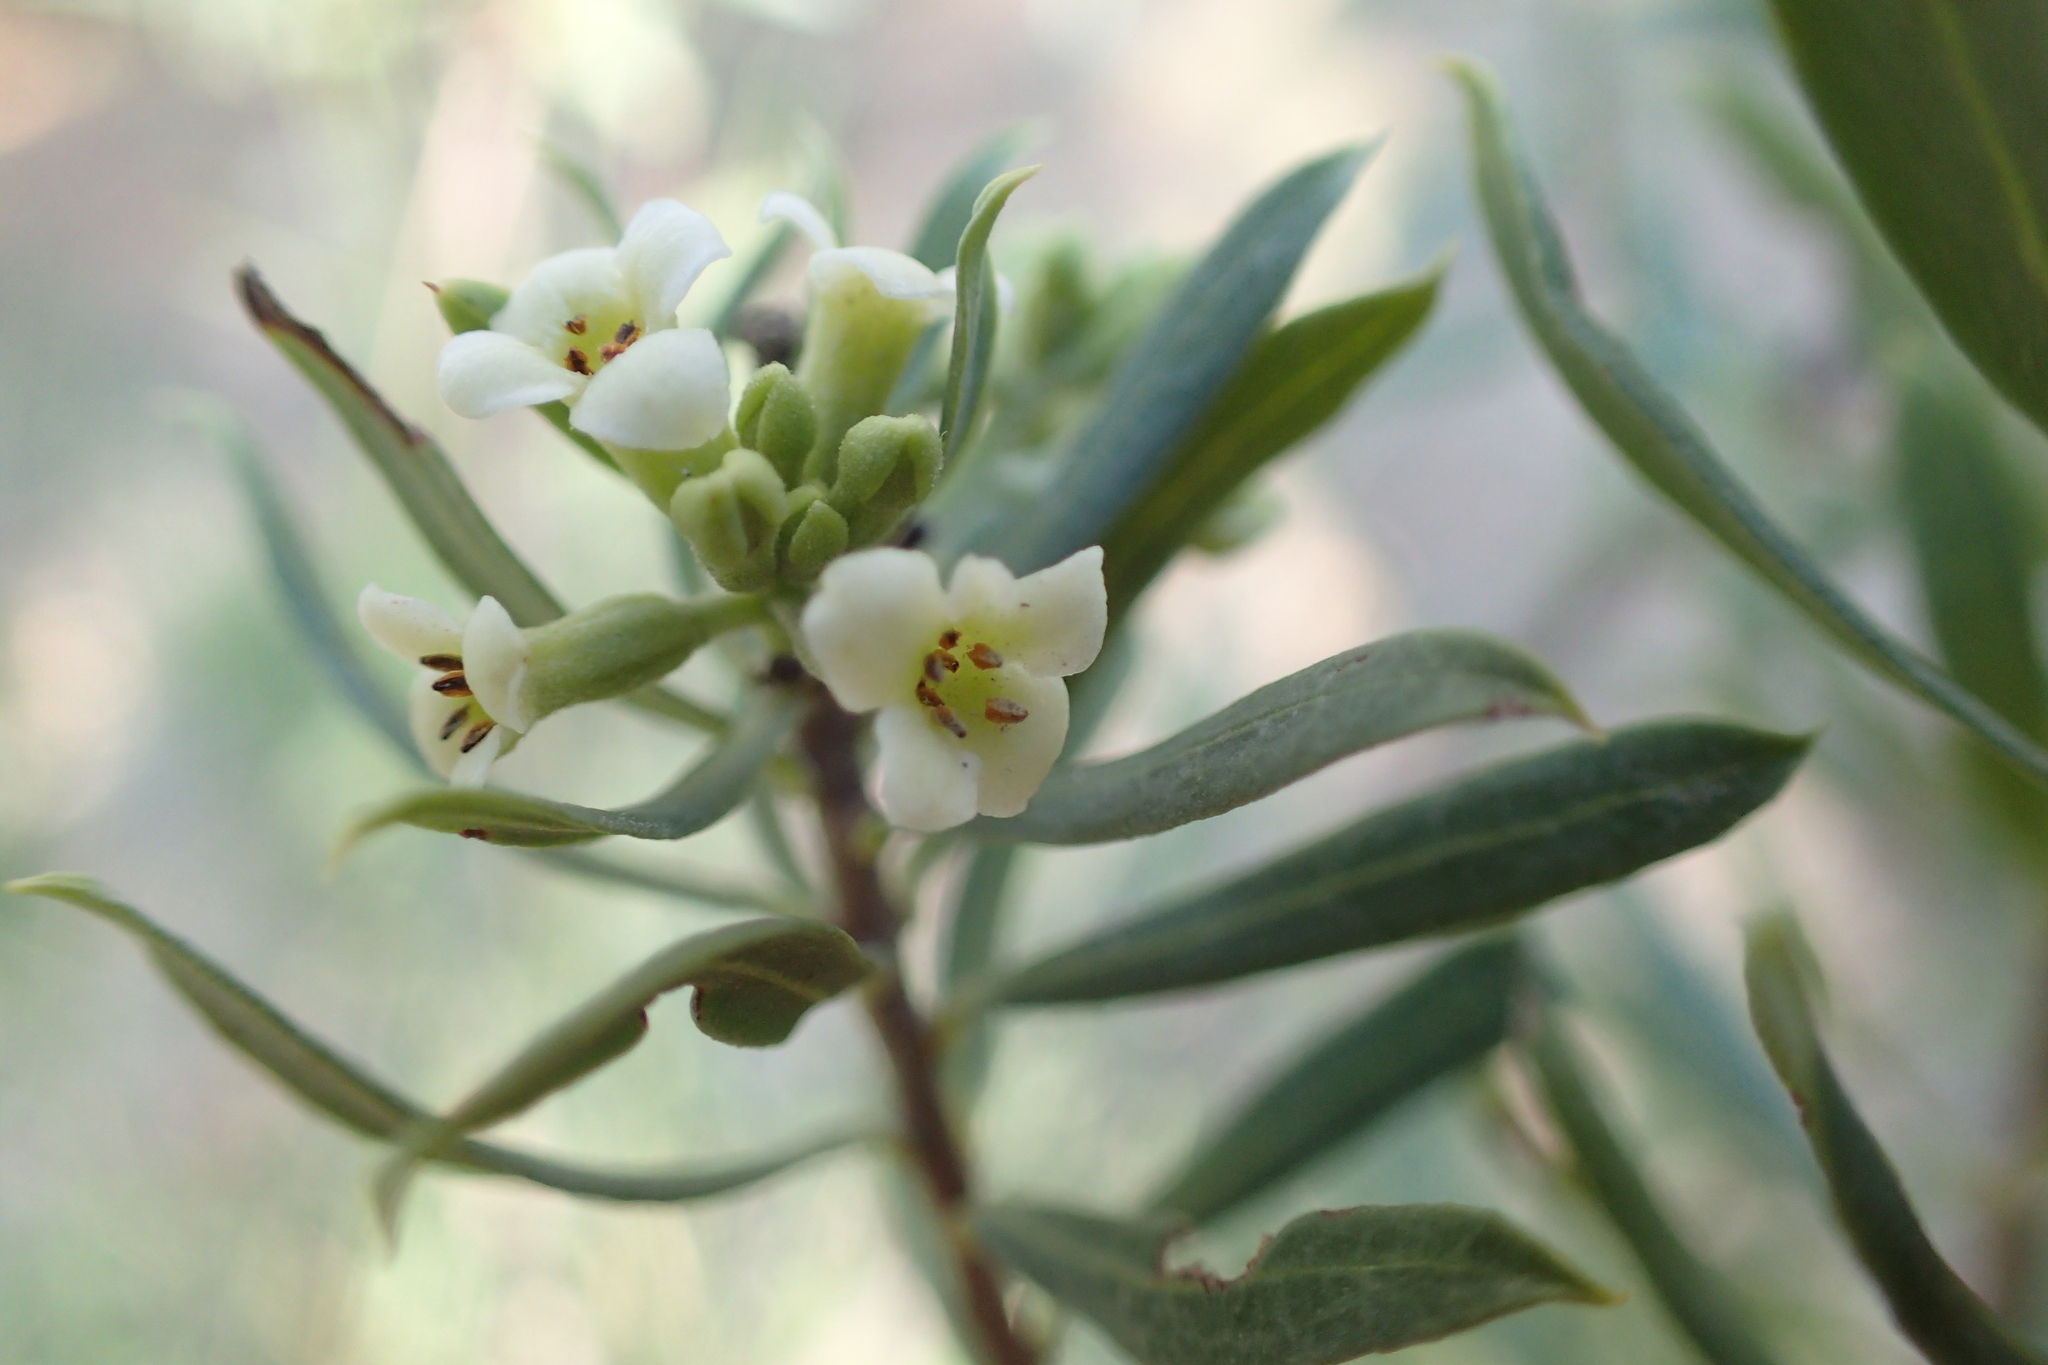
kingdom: Plantae
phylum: Tracheophyta
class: Magnoliopsida
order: Malvales
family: Thymelaeaceae
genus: Daphne
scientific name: Daphne gnidium
